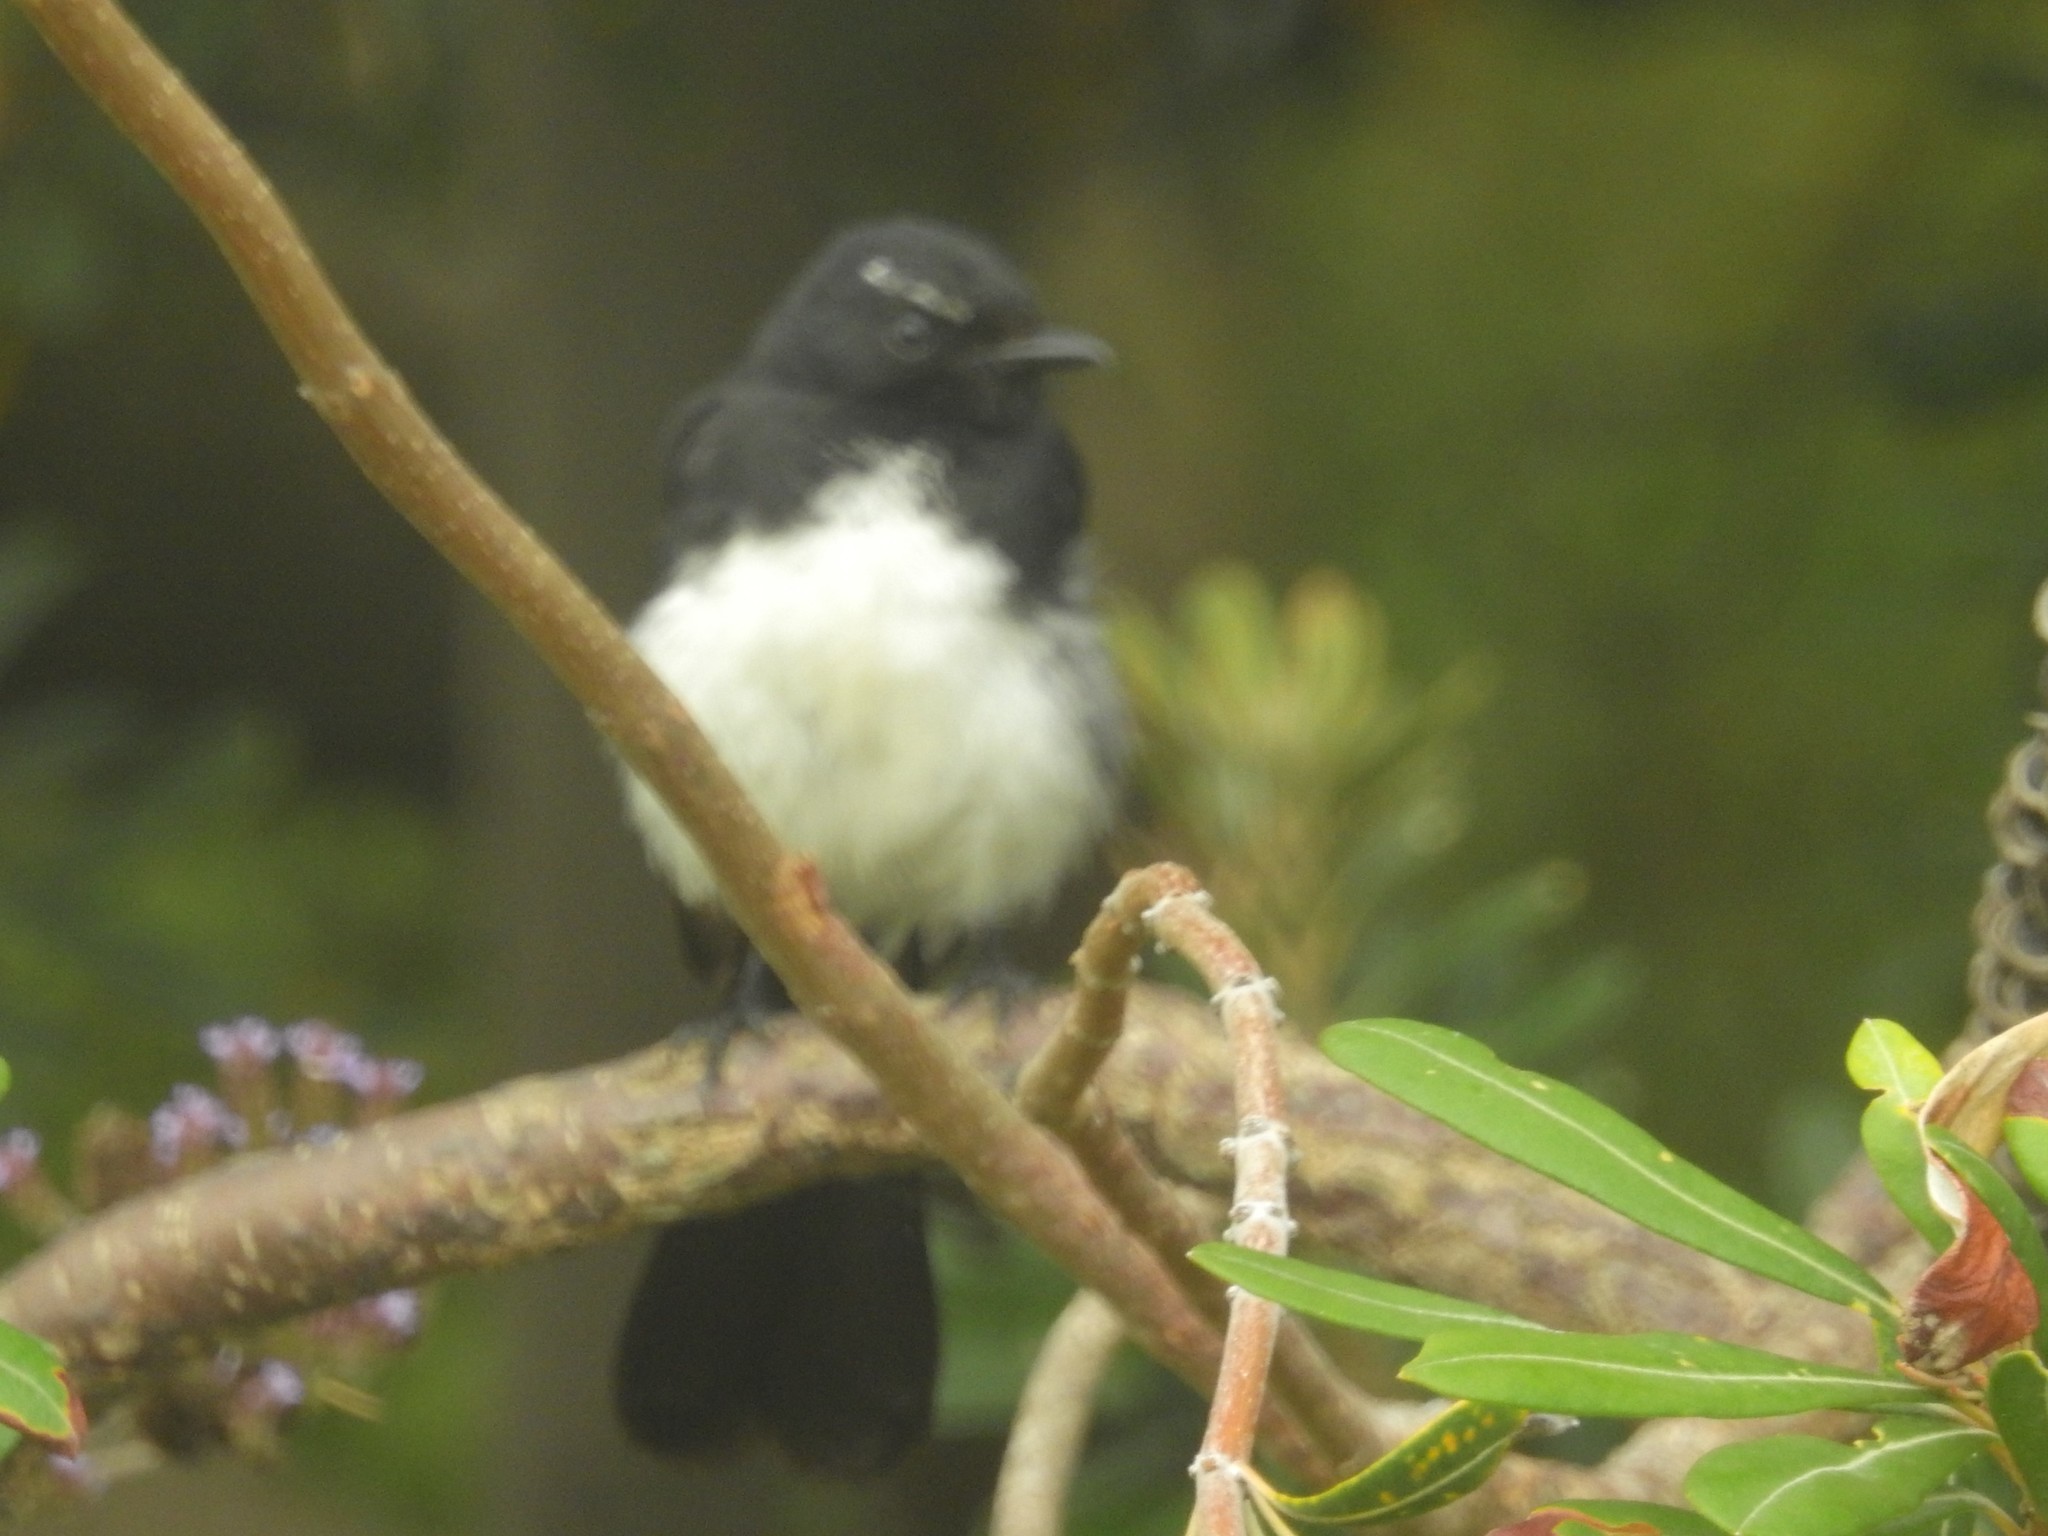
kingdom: Animalia
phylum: Chordata
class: Aves
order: Passeriformes
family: Rhipiduridae
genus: Rhipidura
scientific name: Rhipidura leucophrys
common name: Willie wagtail
